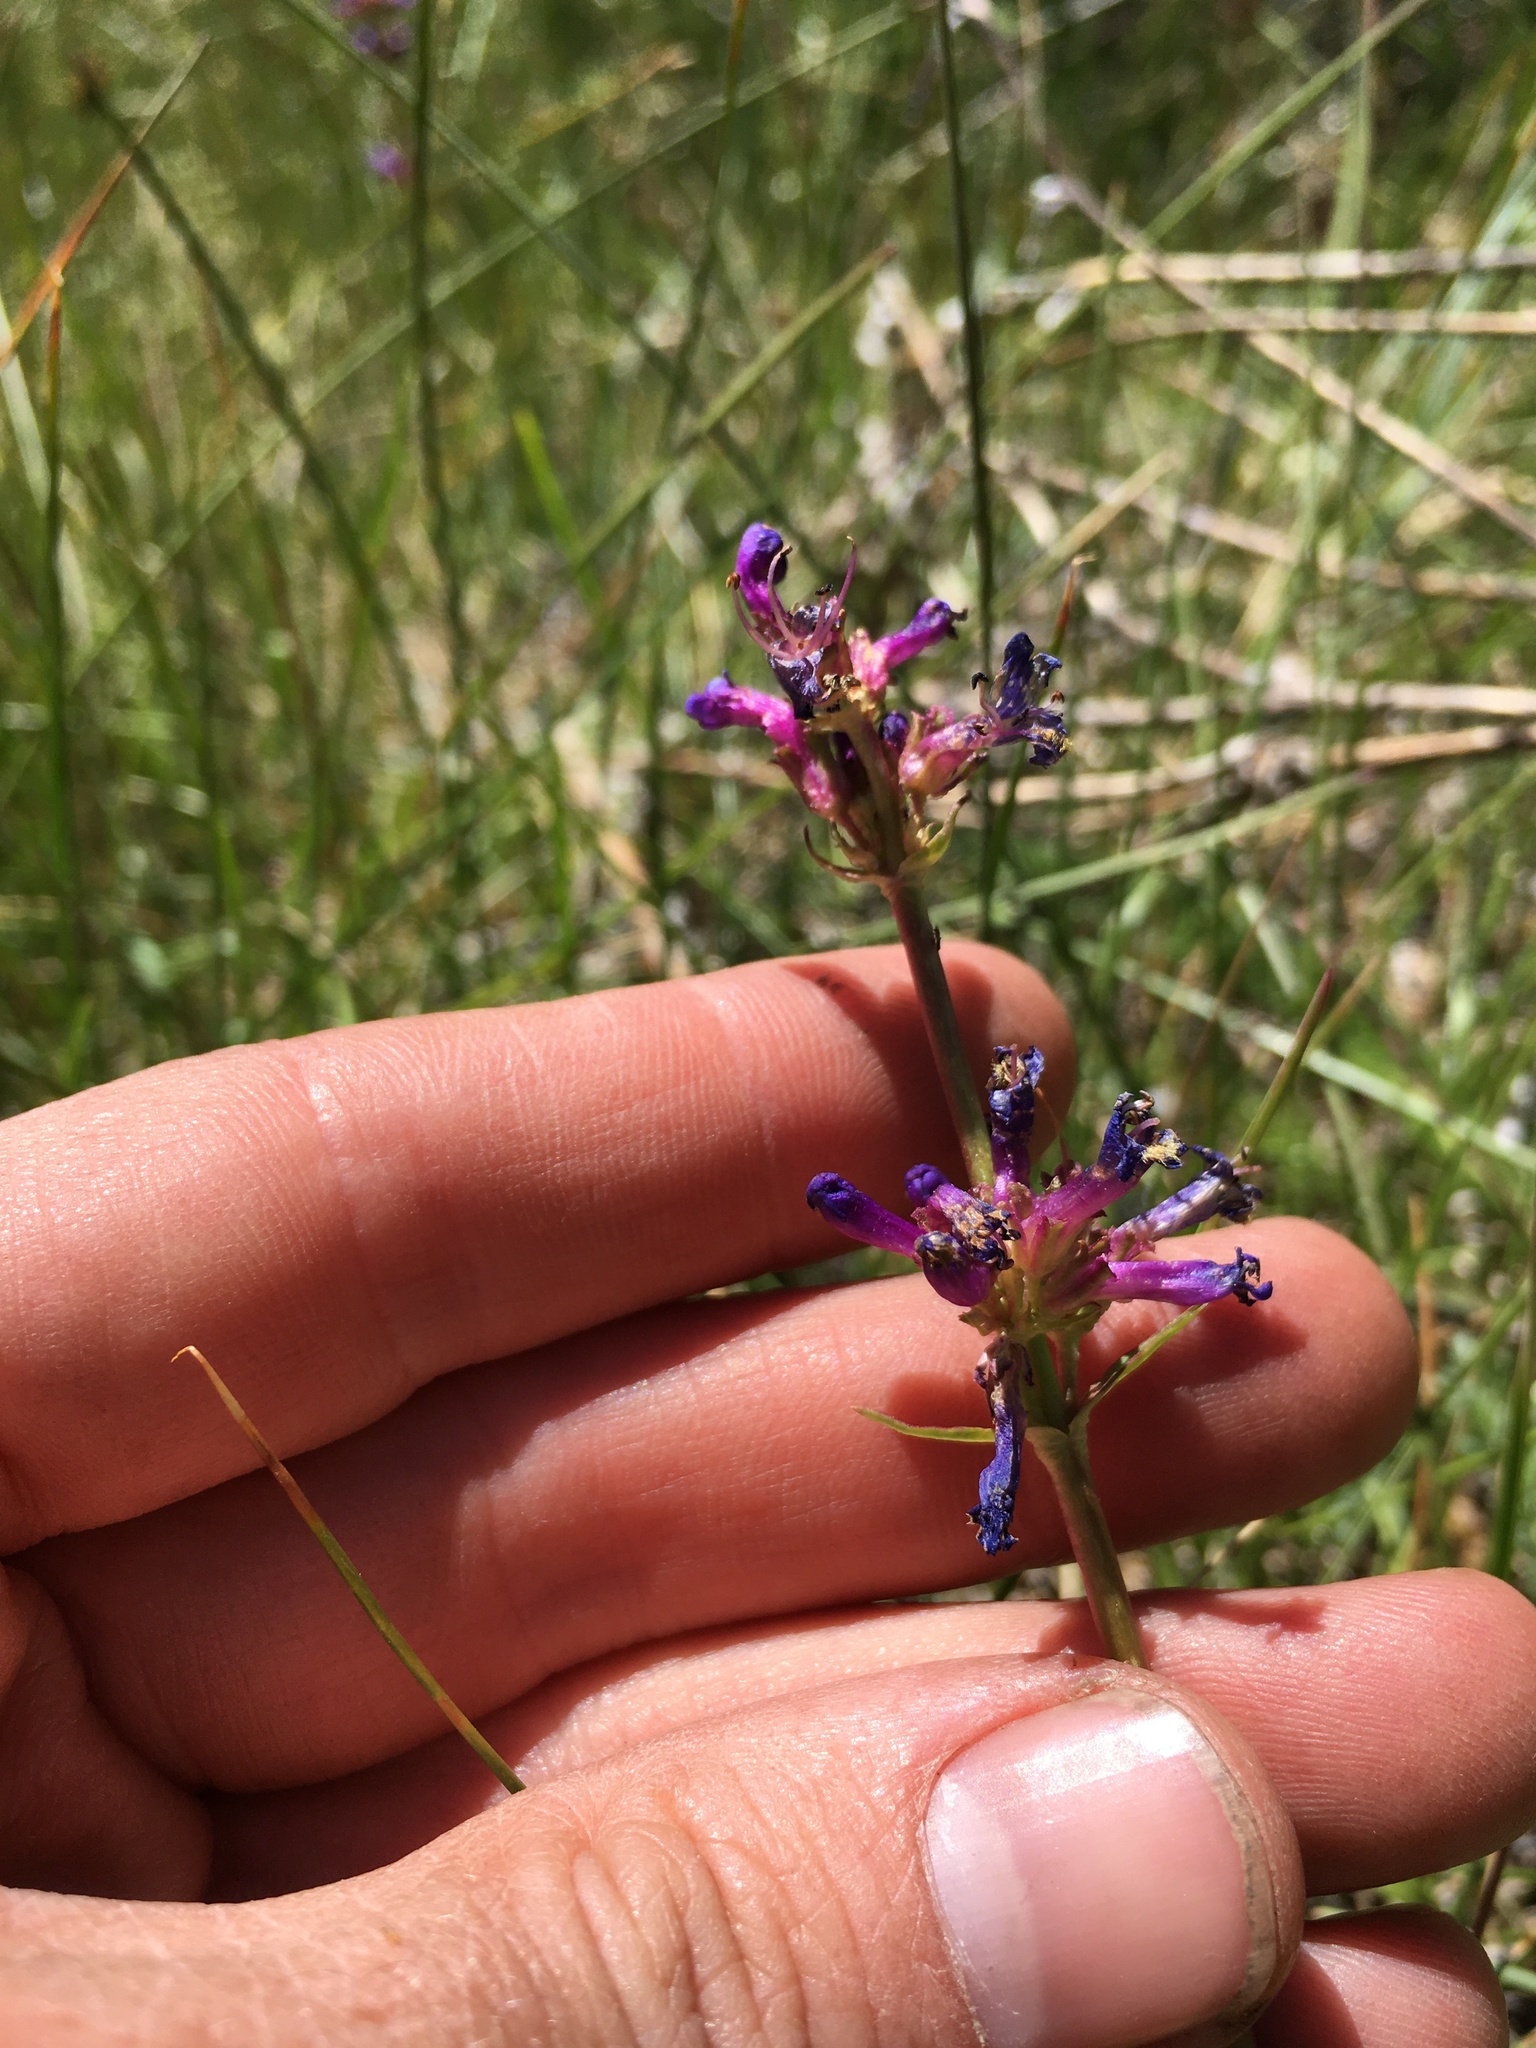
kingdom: Plantae
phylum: Tracheophyta
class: Magnoliopsida
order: Lamiales
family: Plantaginaceae
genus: Penstemon
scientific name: Penstemon rydbergii
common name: Rydberg's beardtongue
